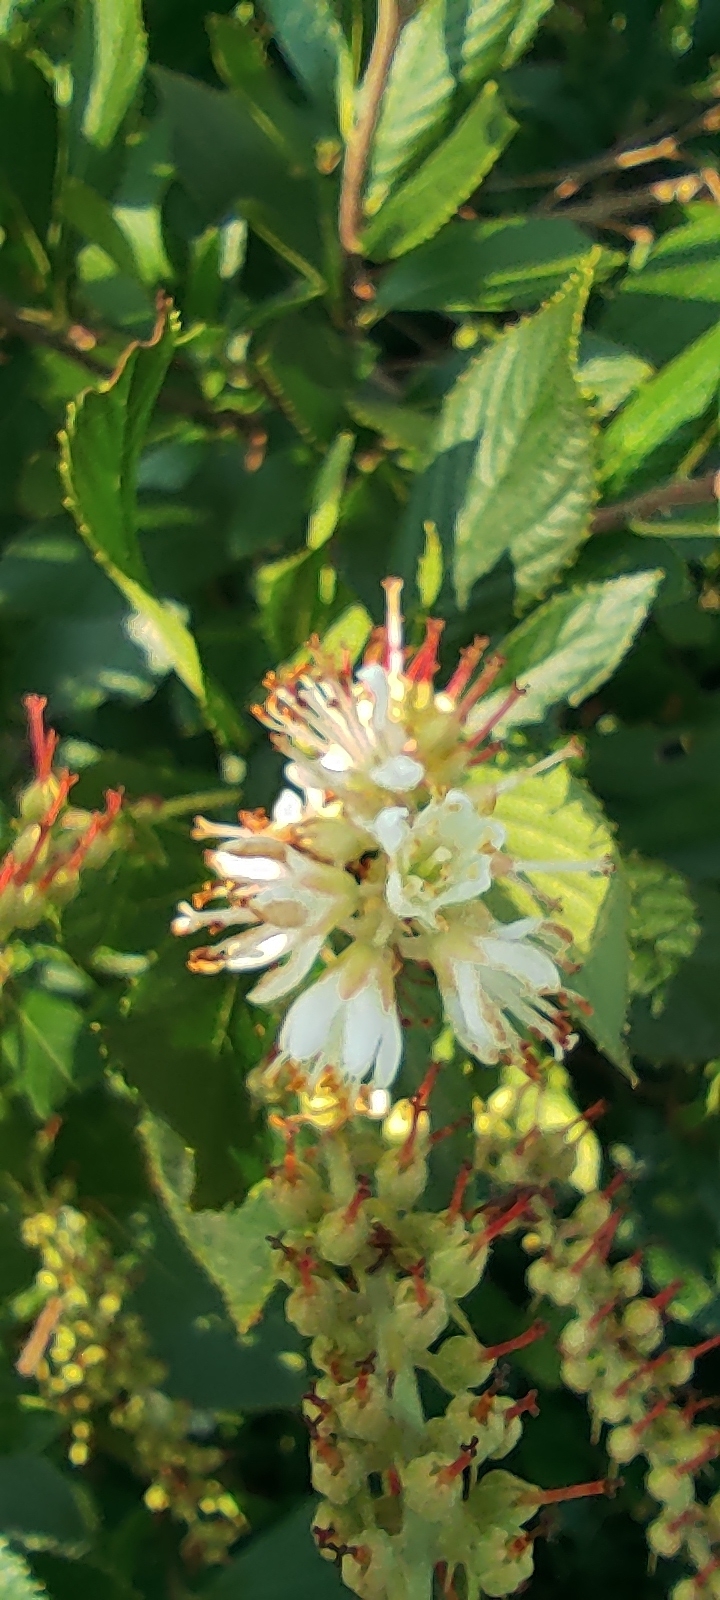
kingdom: Plantae
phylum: Tracheophyta
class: Magnoliopsida
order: Ericales
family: Clethraceae
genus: Clethra
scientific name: Clethra alnifolia
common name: Sweet pepperbush
